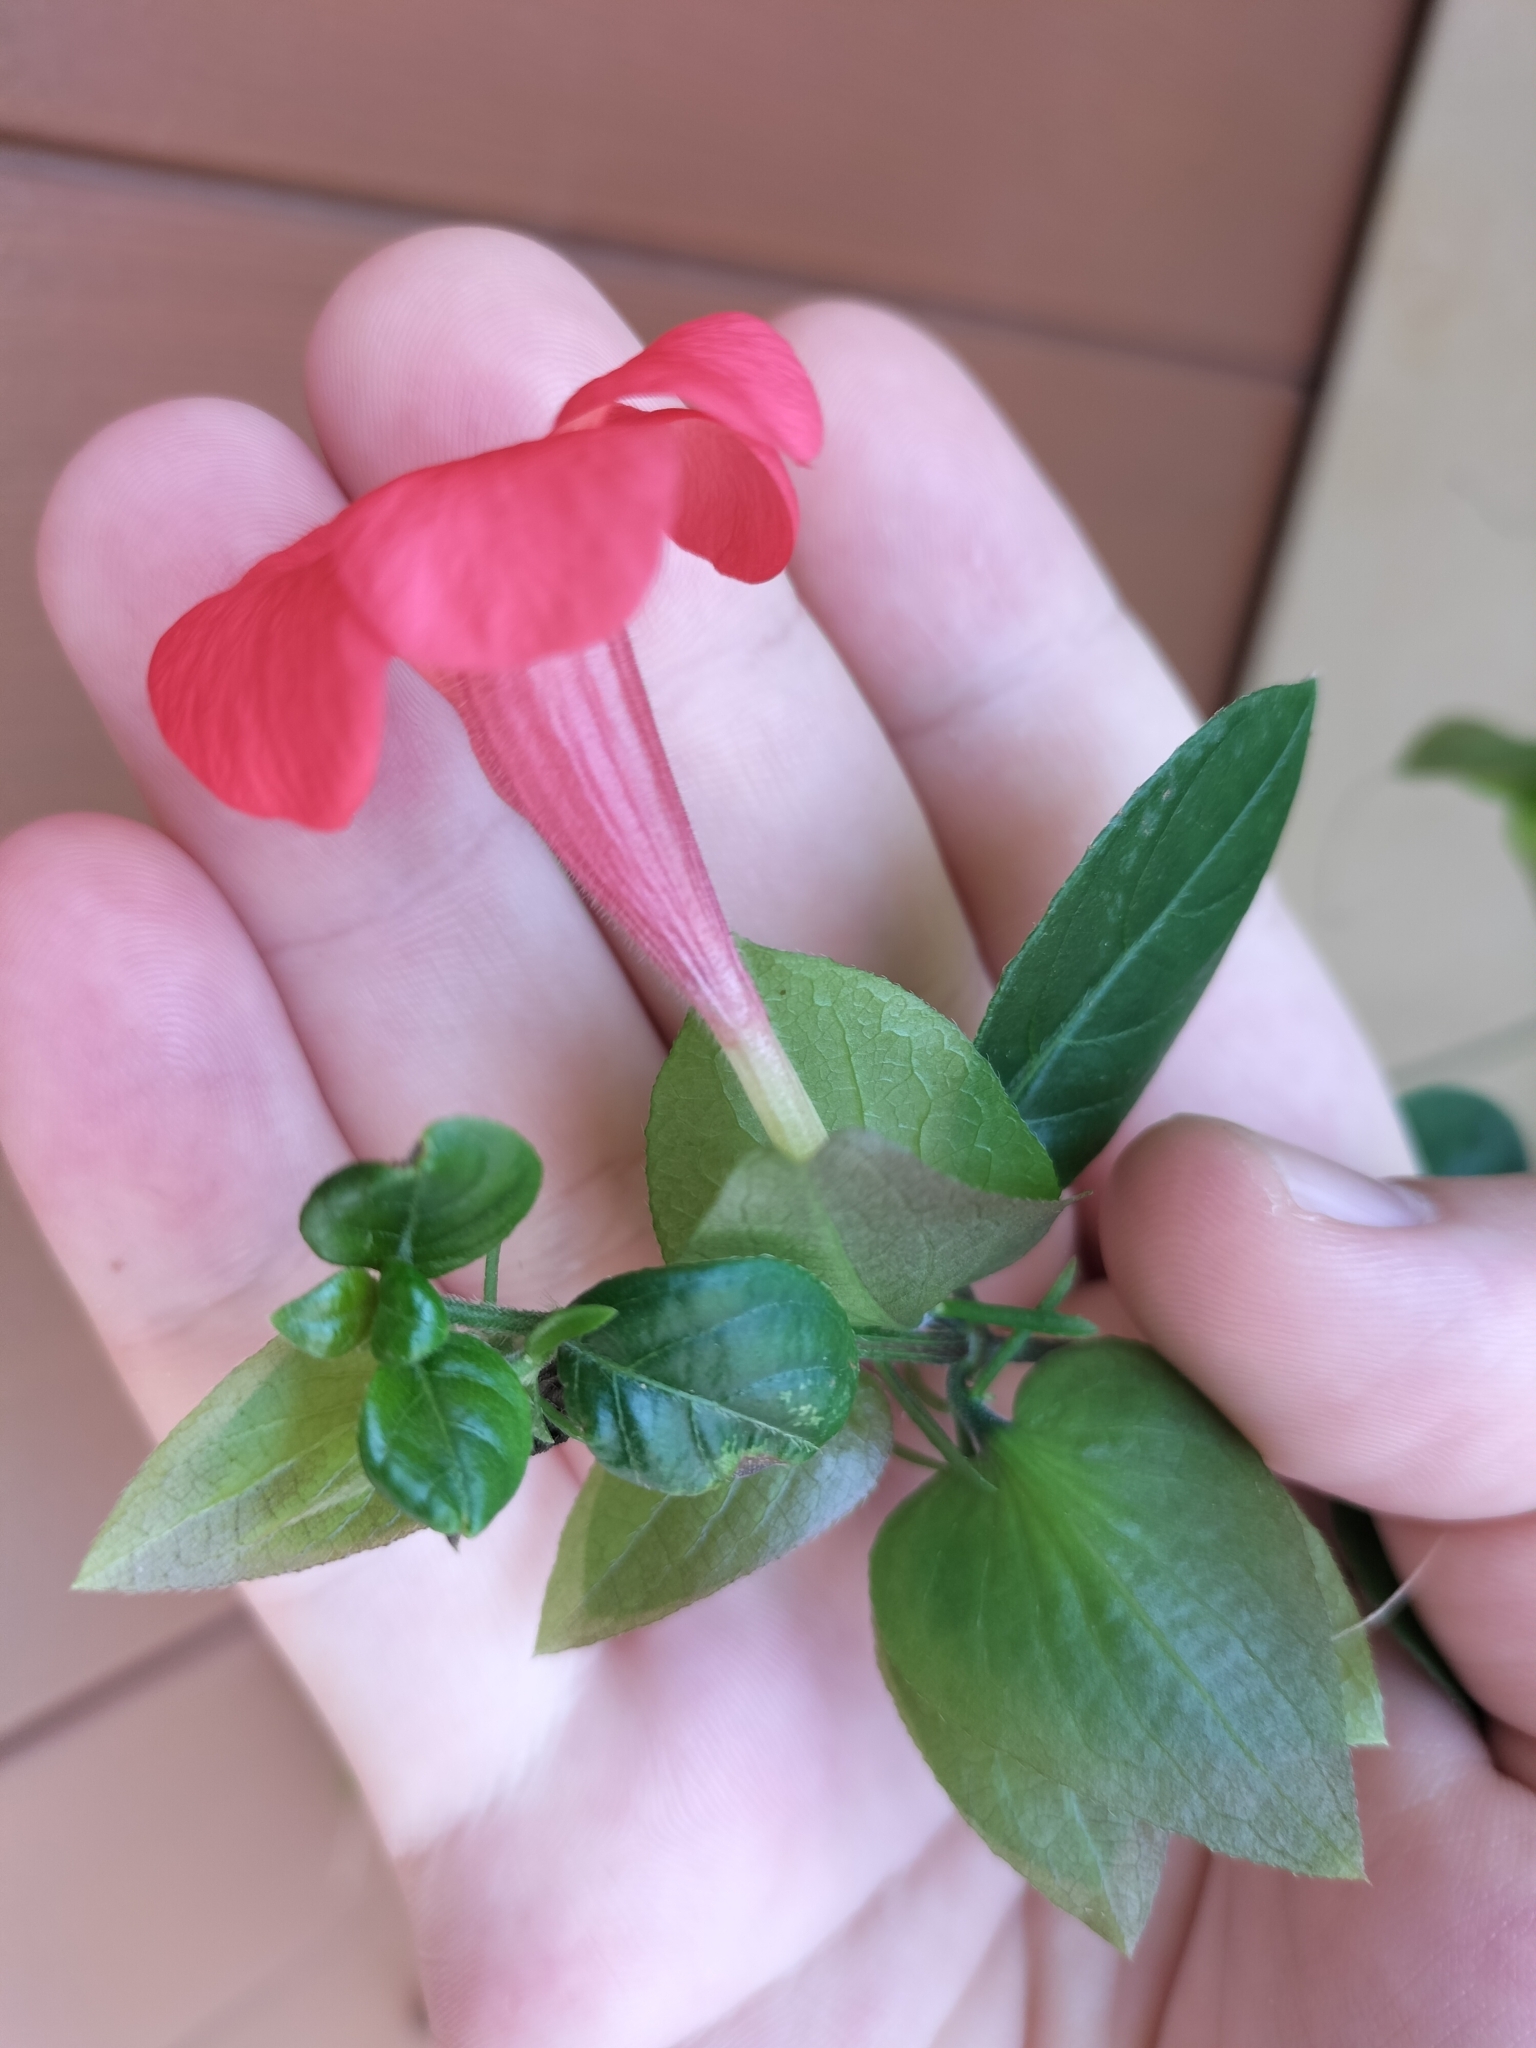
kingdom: Plantae
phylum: Tracheophyta
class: Magnoliopsida
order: Lamiales
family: Acanthaceae
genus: Barleria
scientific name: Barleria repens
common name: Pink-ruellia
